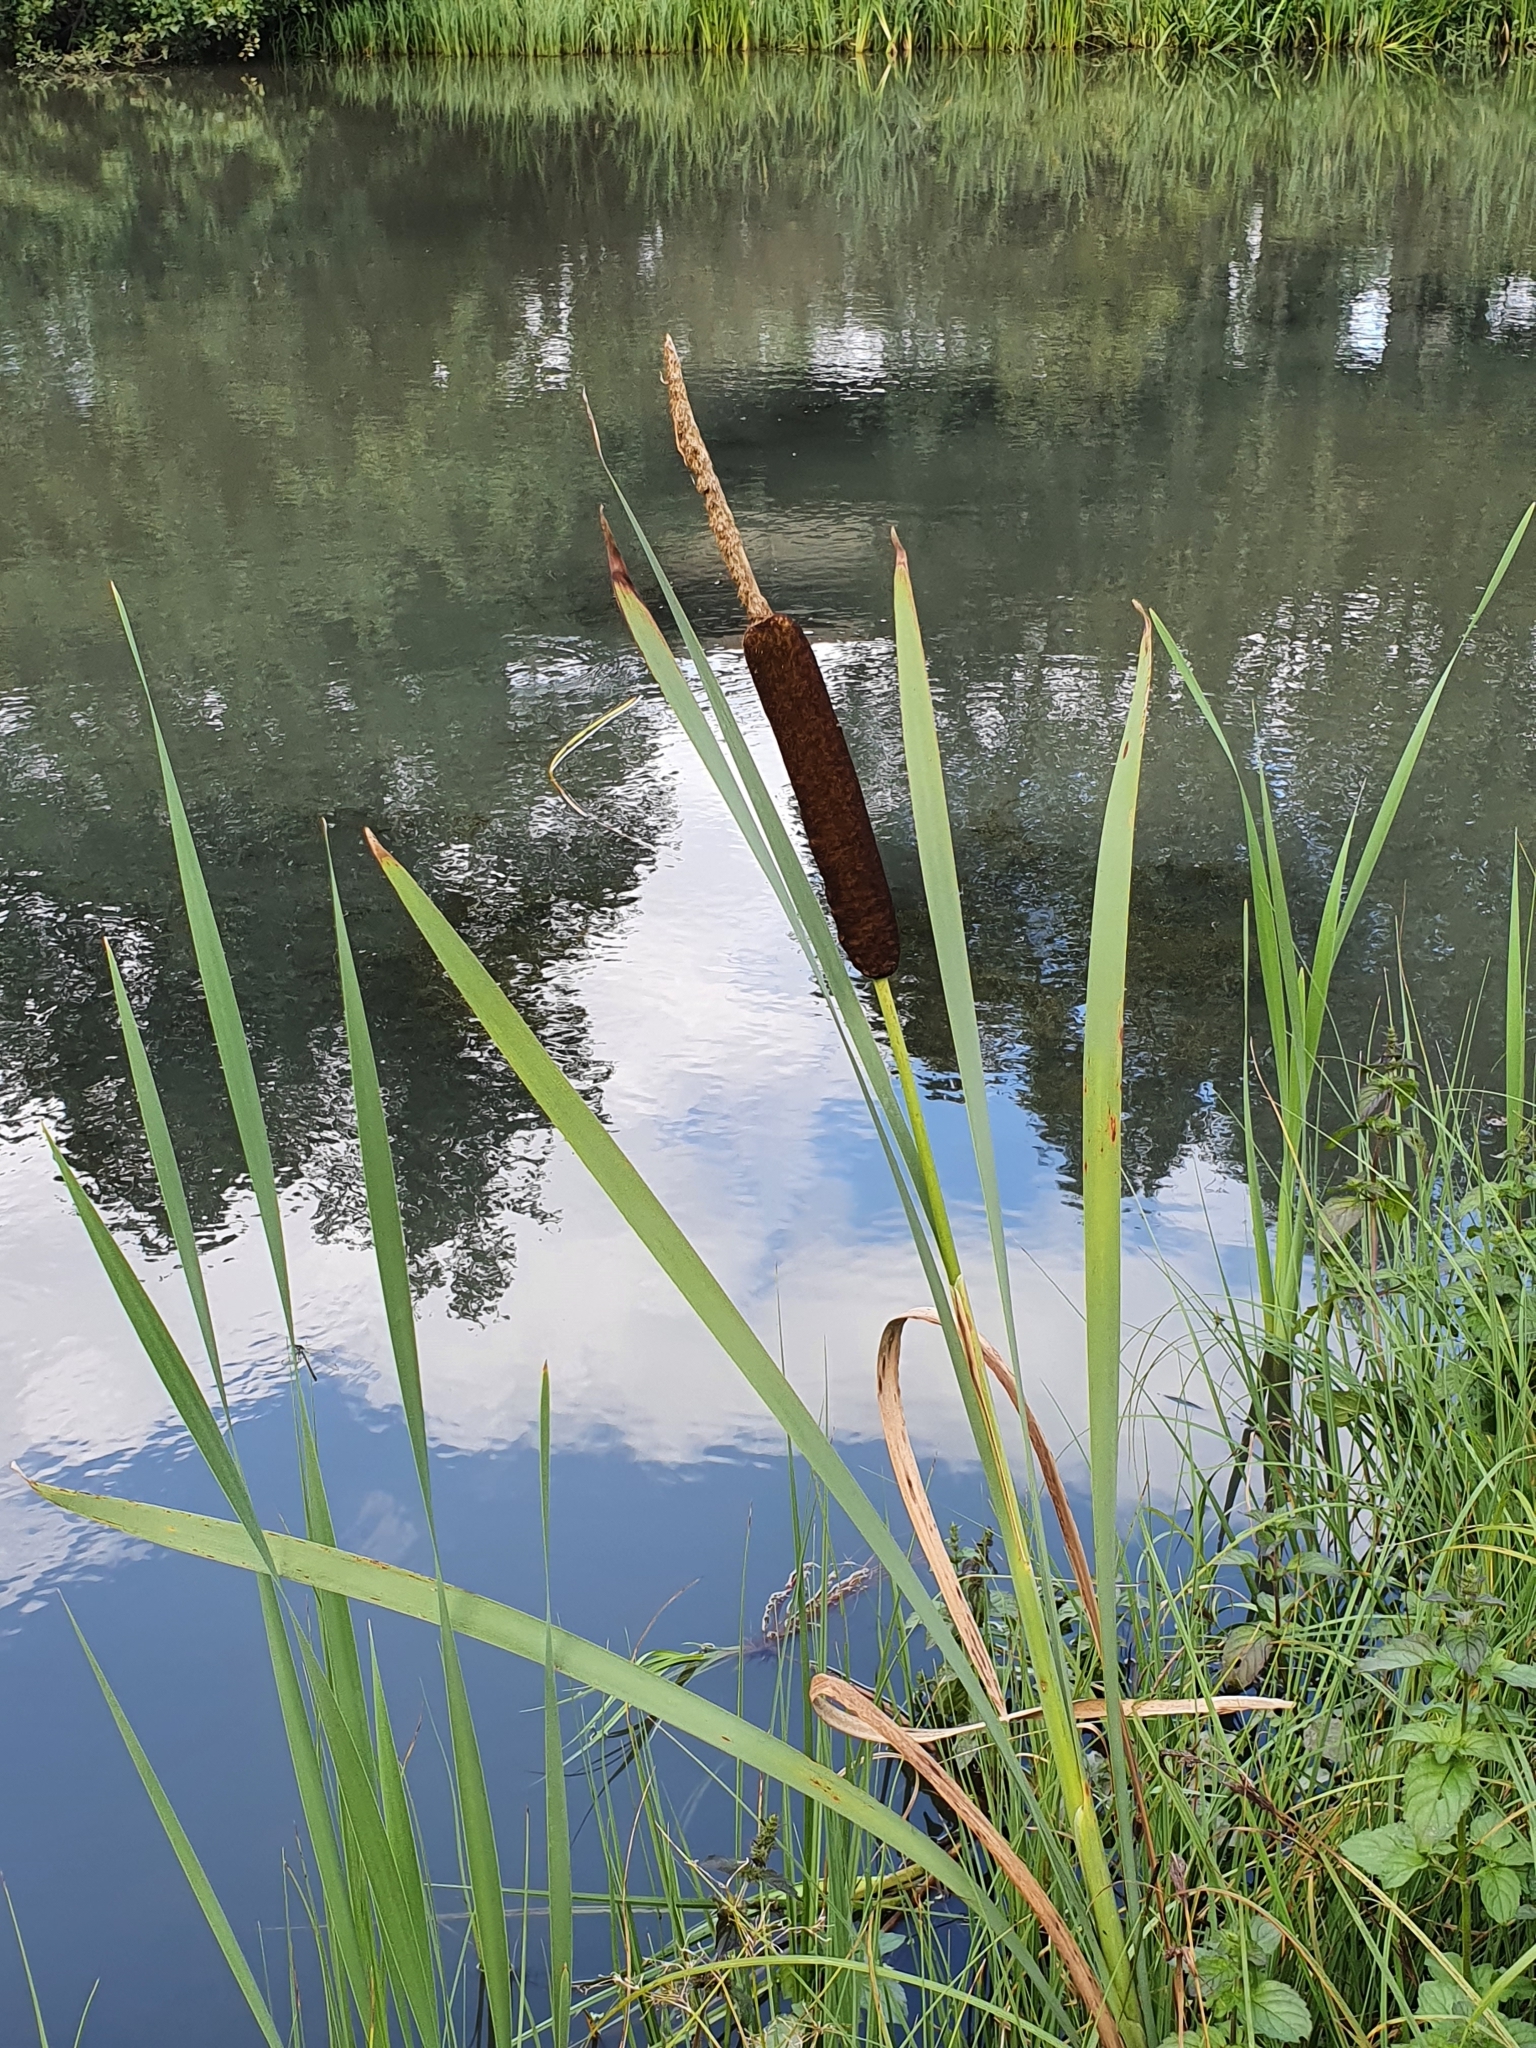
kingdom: Plantae
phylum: Tracheophyta
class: Liliopsida
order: Poales
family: Typhaceae
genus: Typha
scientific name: Typha latifolia
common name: Broadleaf cattail
